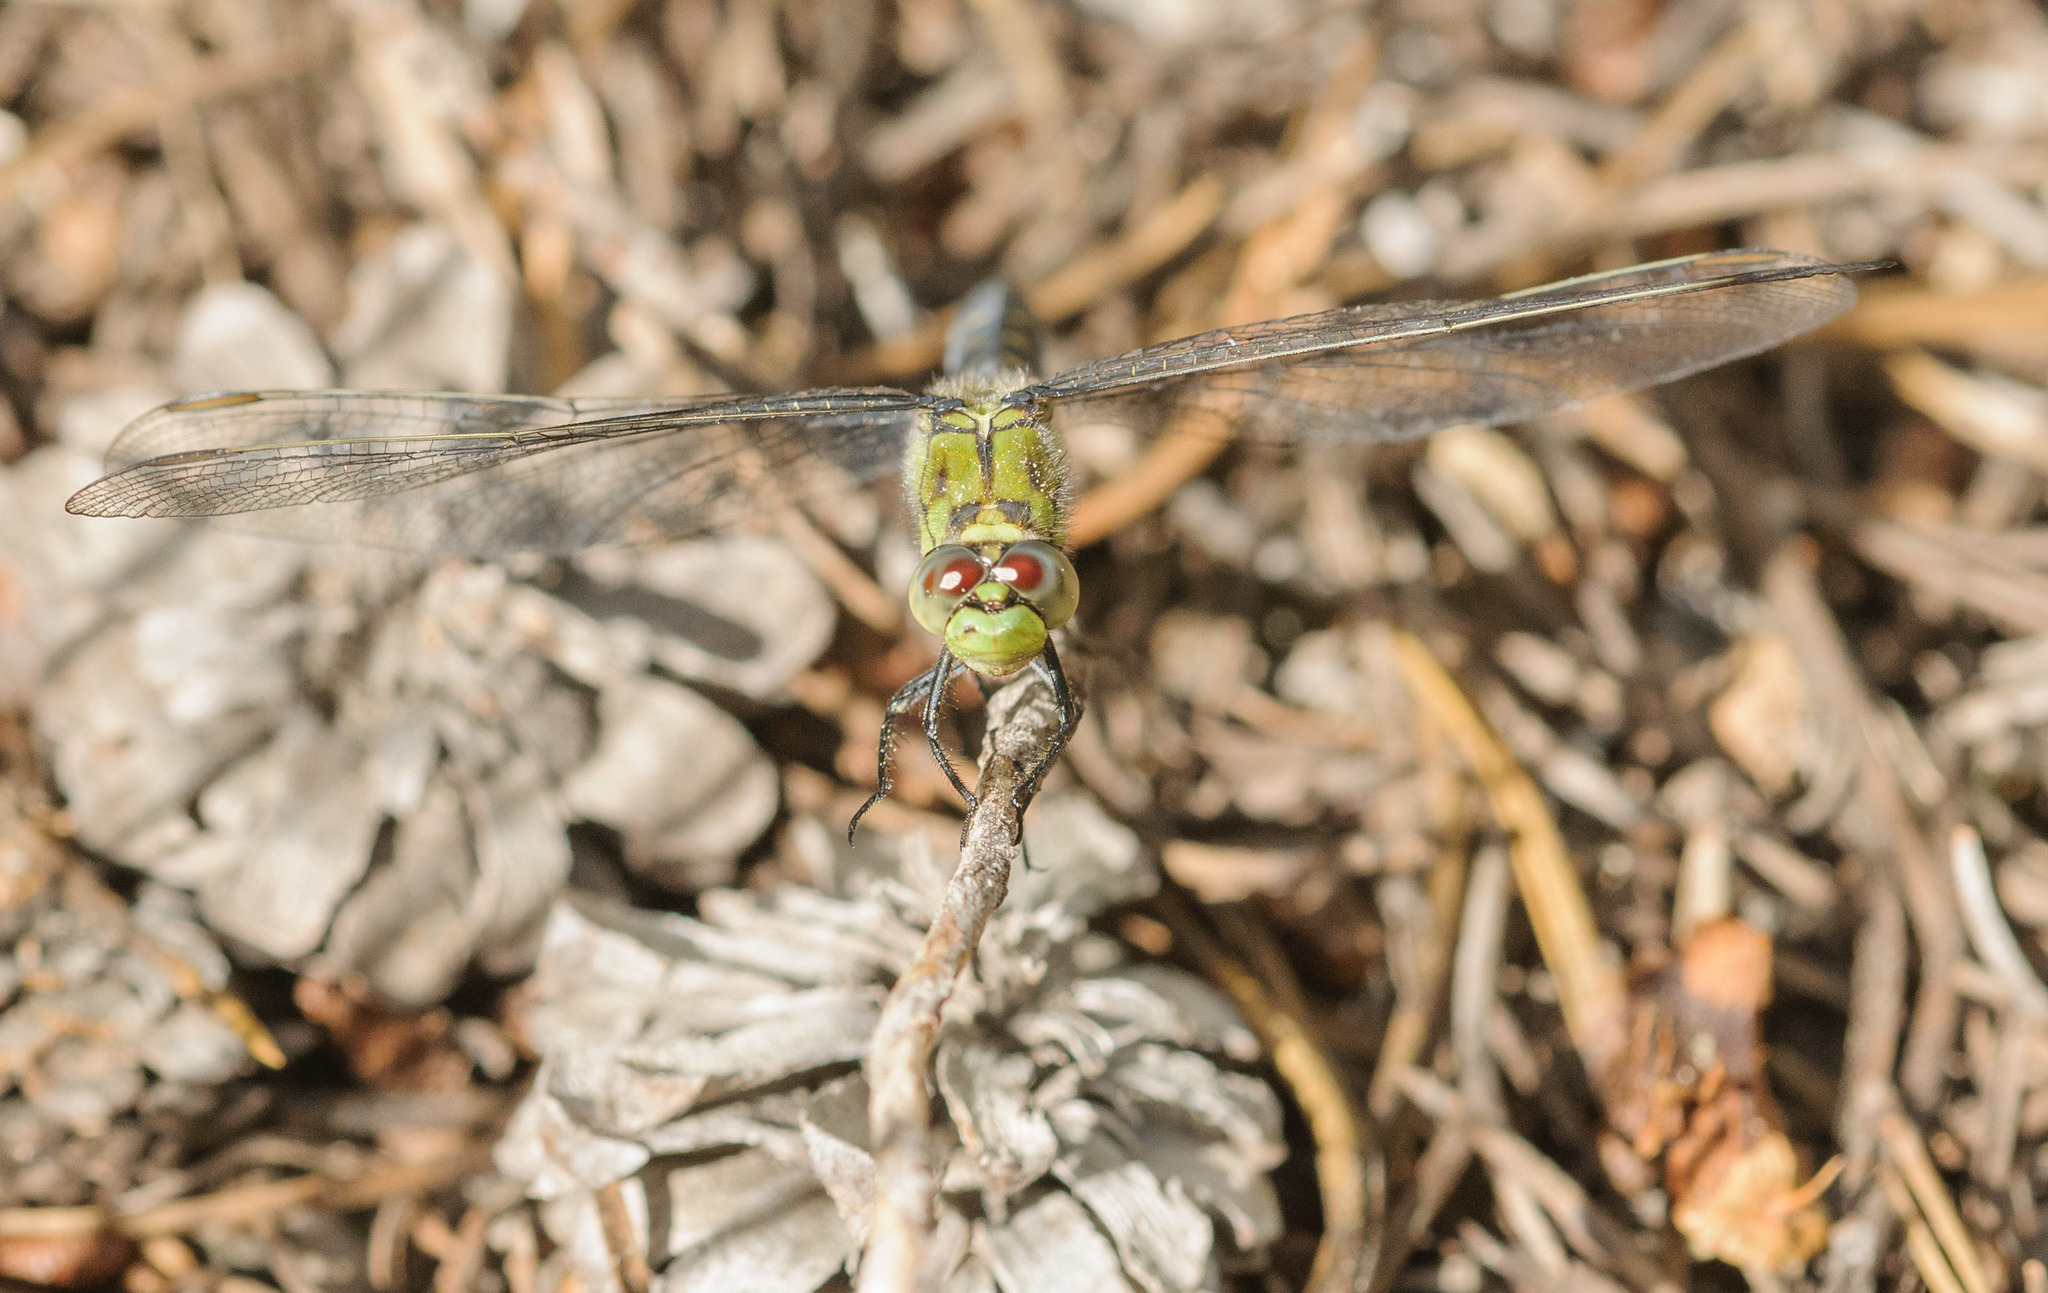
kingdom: Animalia
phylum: Arthropoda
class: Insecta
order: Odonata
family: Libellulidae
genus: Erythemis
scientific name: Erythemis collocata
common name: Western pondhawk
